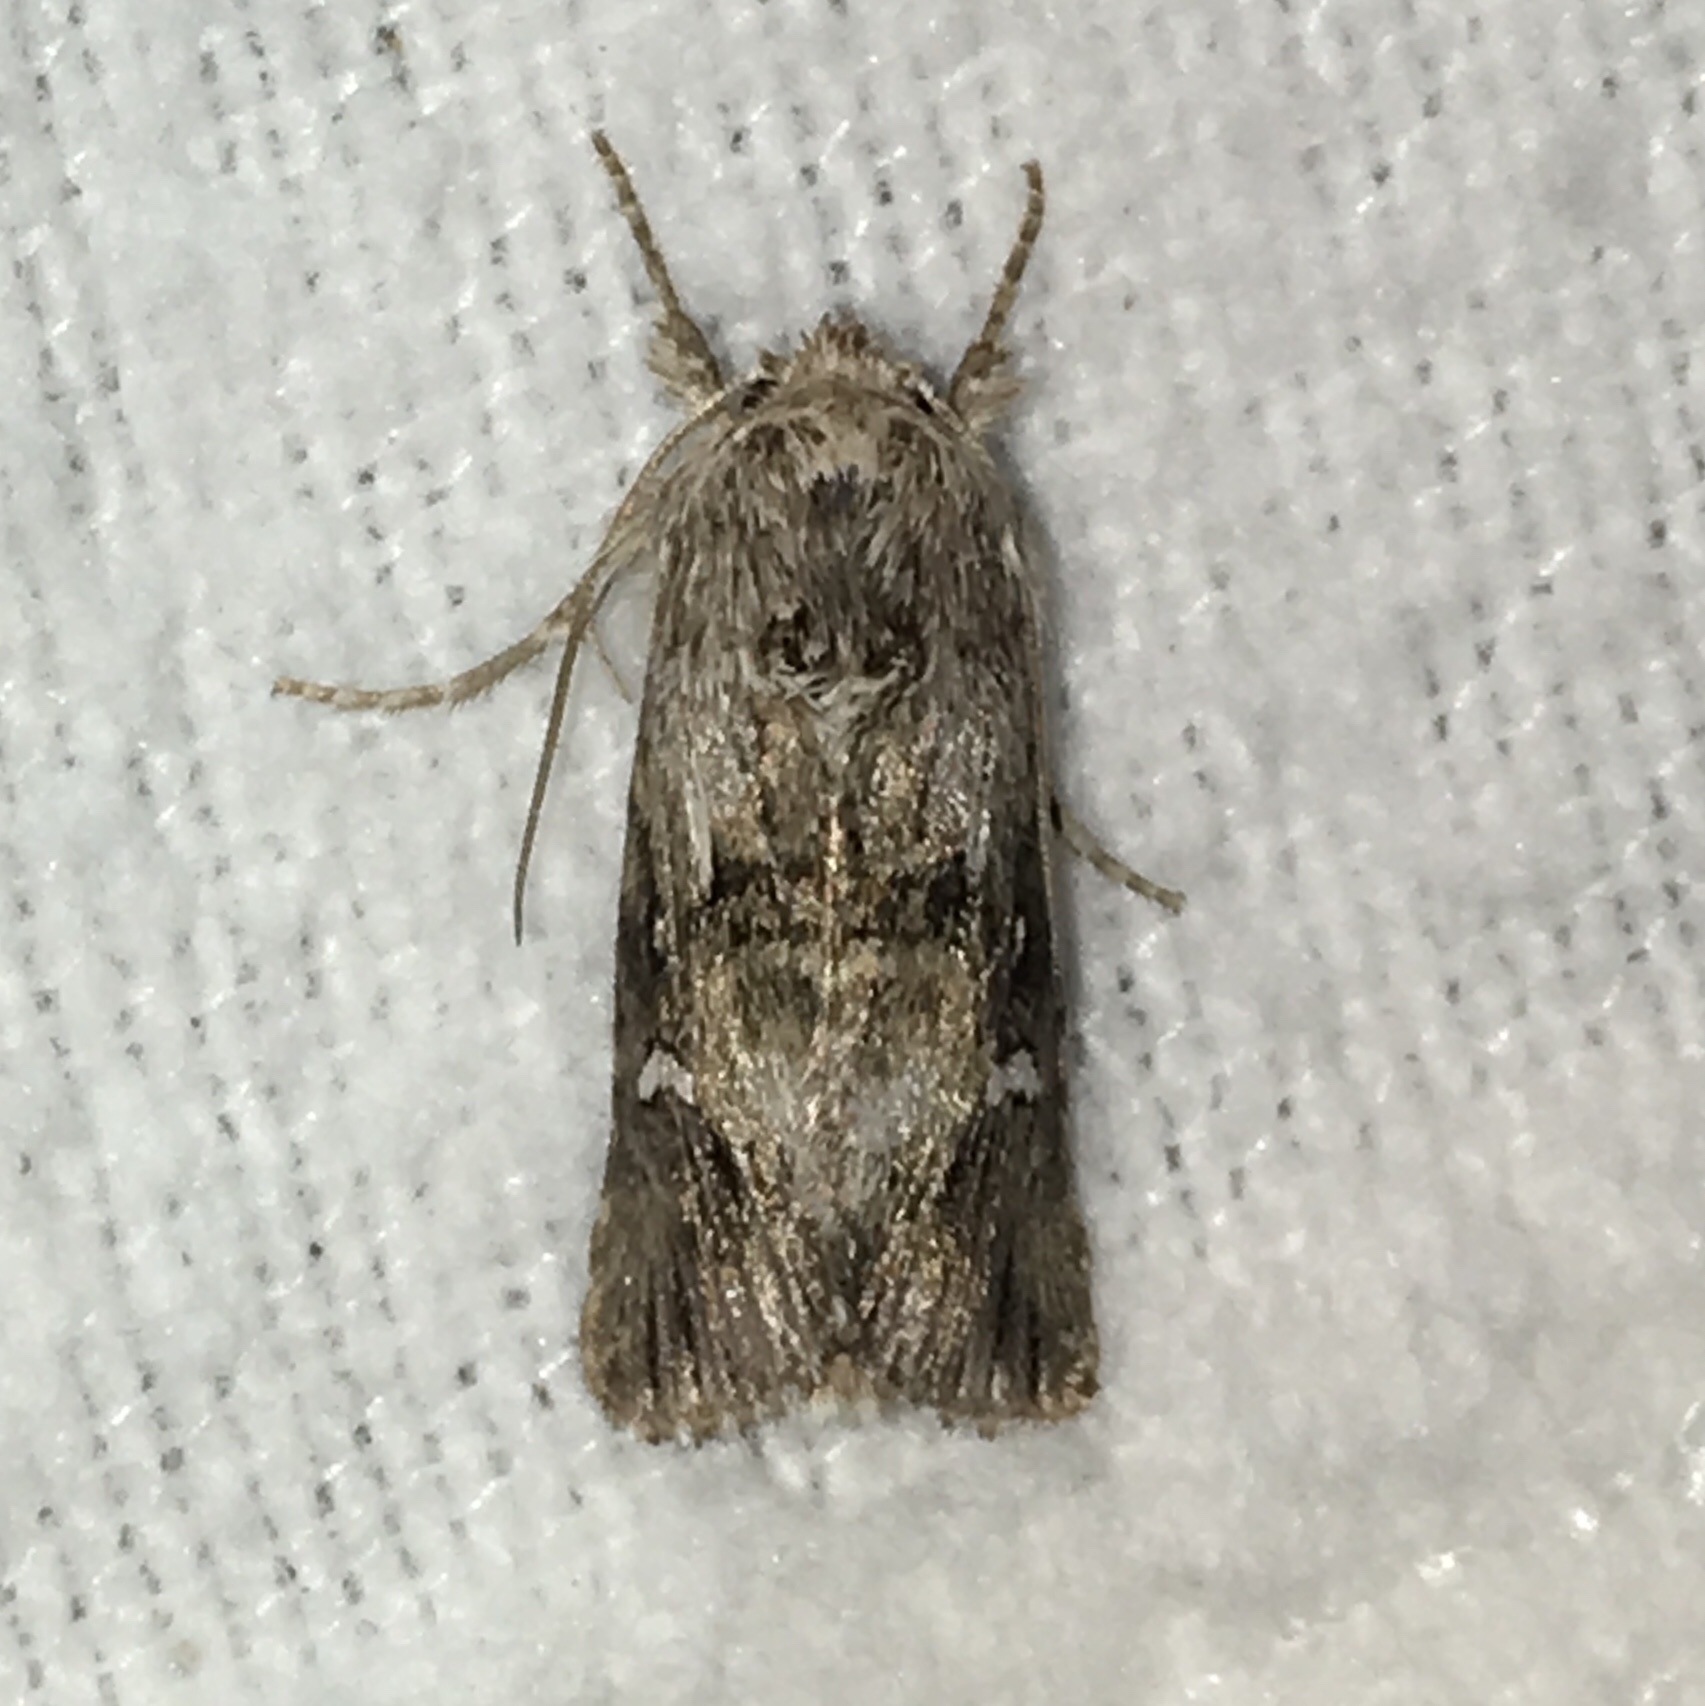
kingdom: Animalia
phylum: Arthropoda
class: Insecta
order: Lepidoptera
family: Noctuidae
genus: Calophasia
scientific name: Calophasia lunula
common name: Toadflax brocade
